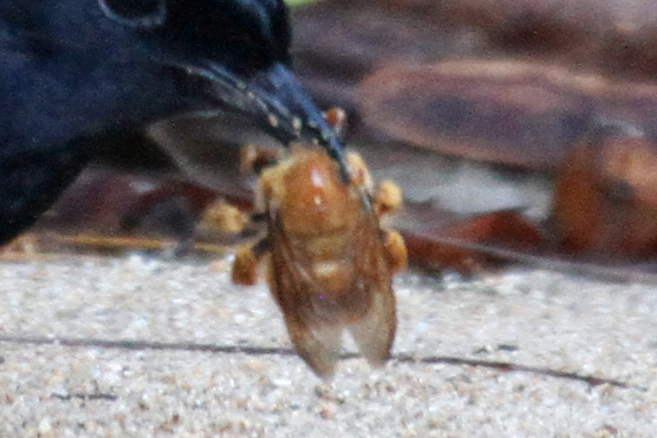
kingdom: Animalia
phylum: Arthropoda
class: Insecta
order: Hymenoptera
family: Apidae
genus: Xylocopa
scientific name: Xylocopa sonorina
